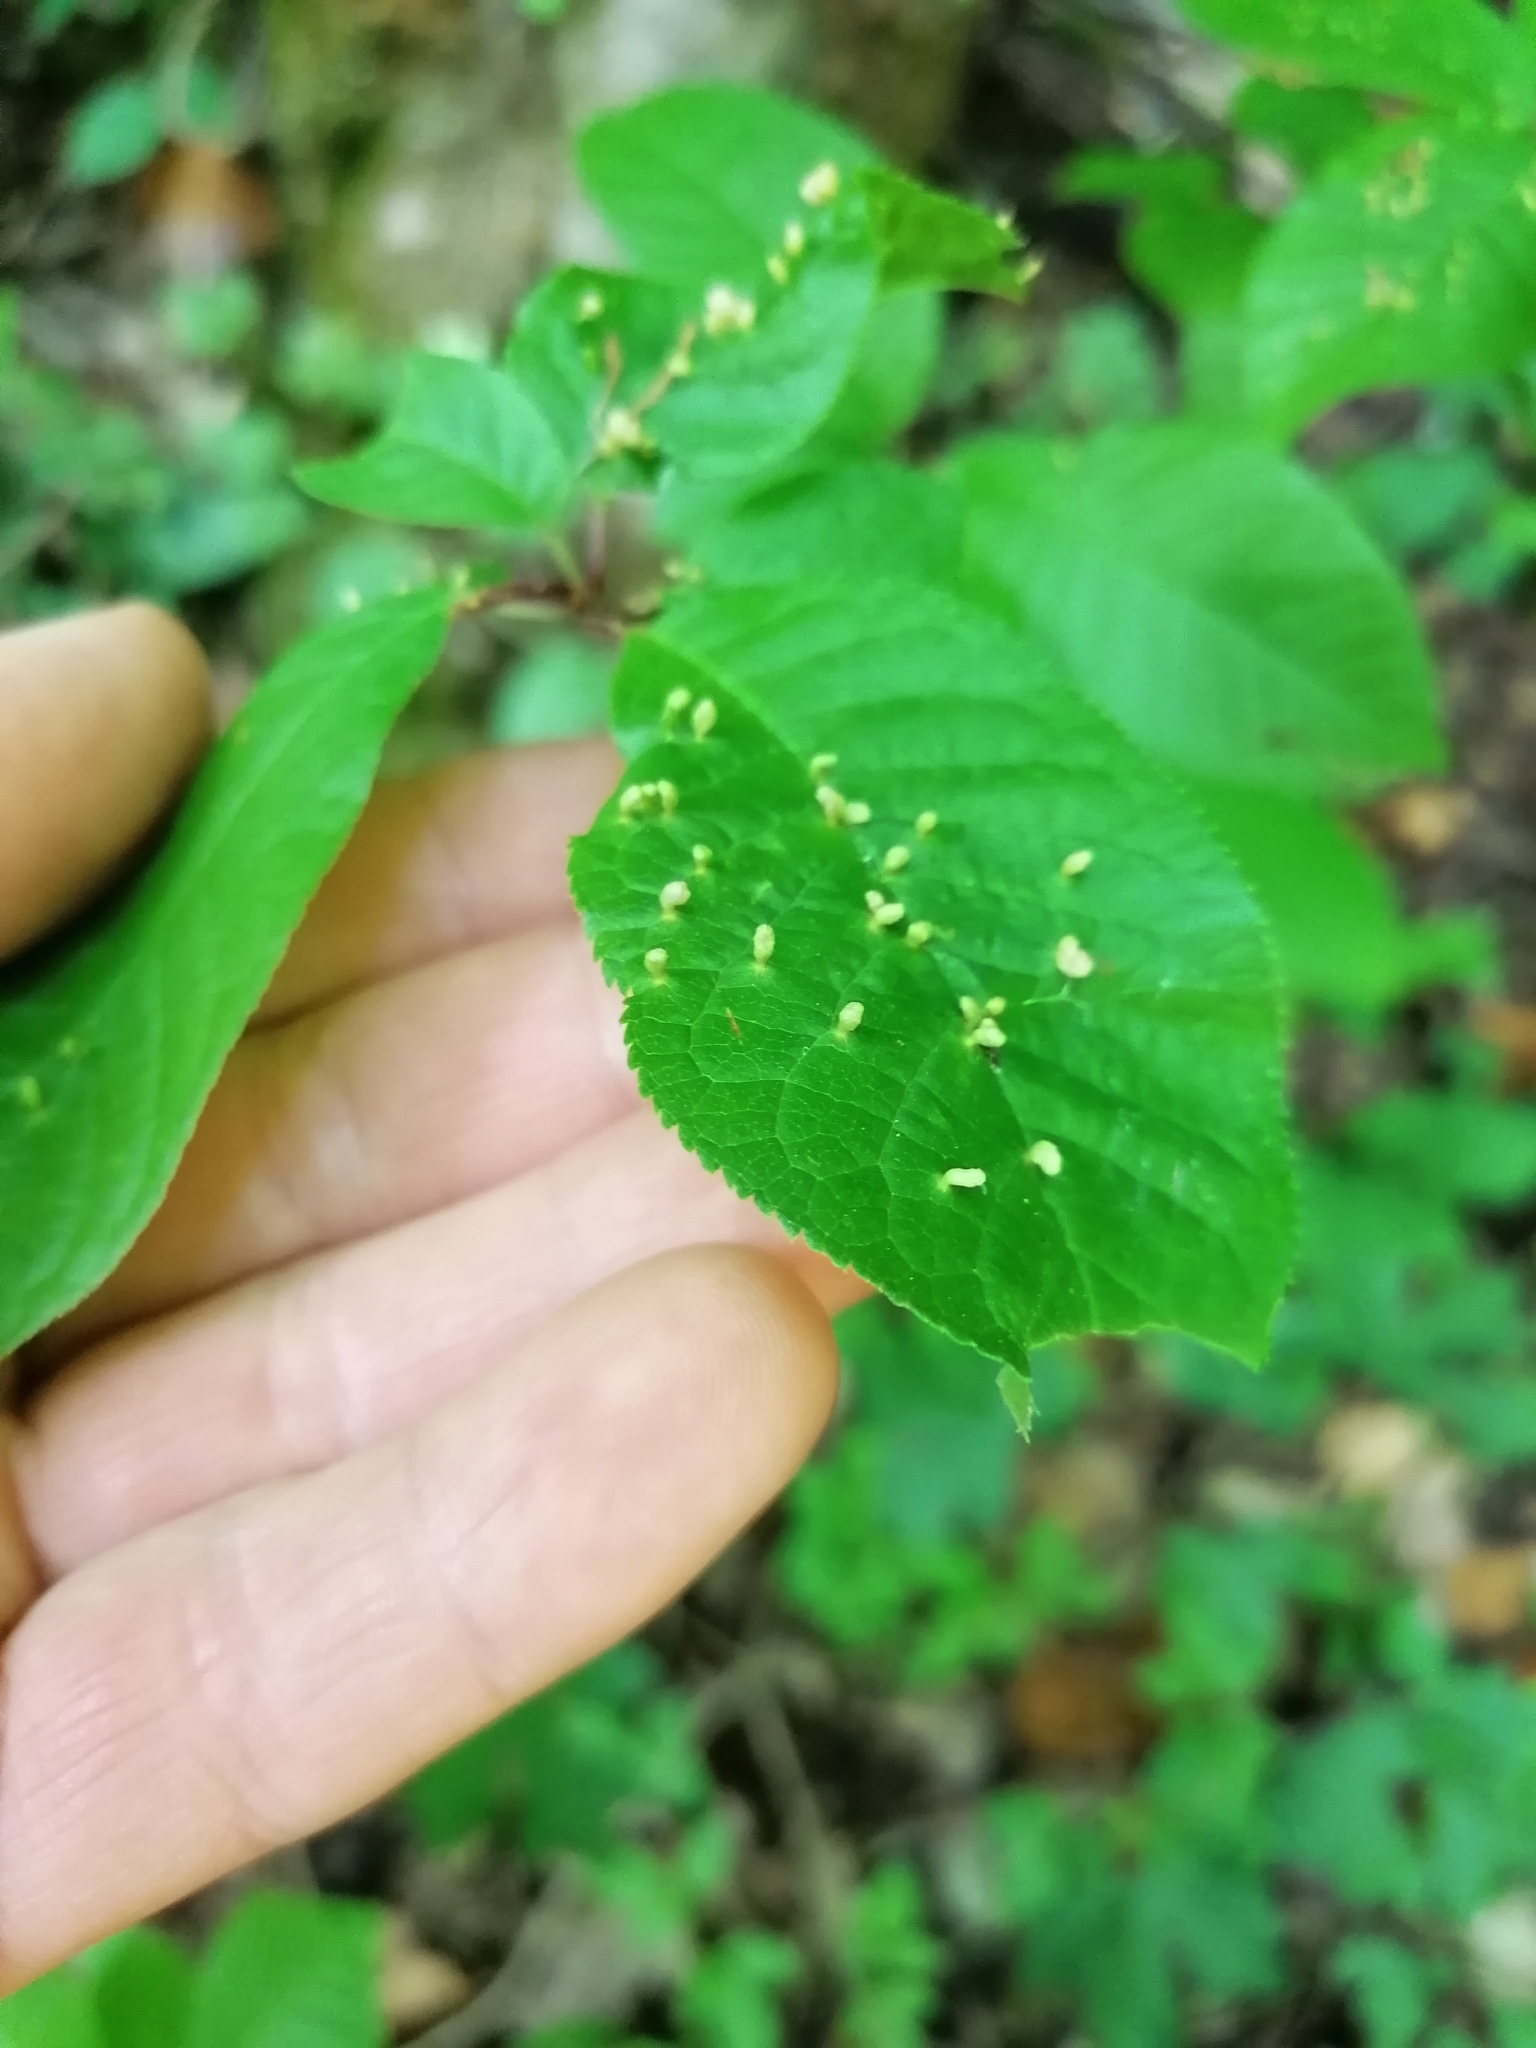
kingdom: Animalia
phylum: Arthropoda
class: Arachnida
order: Trombidiformes
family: Eriophyidae
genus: Phyllocoptes
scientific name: Phyllocoptes eupadi
